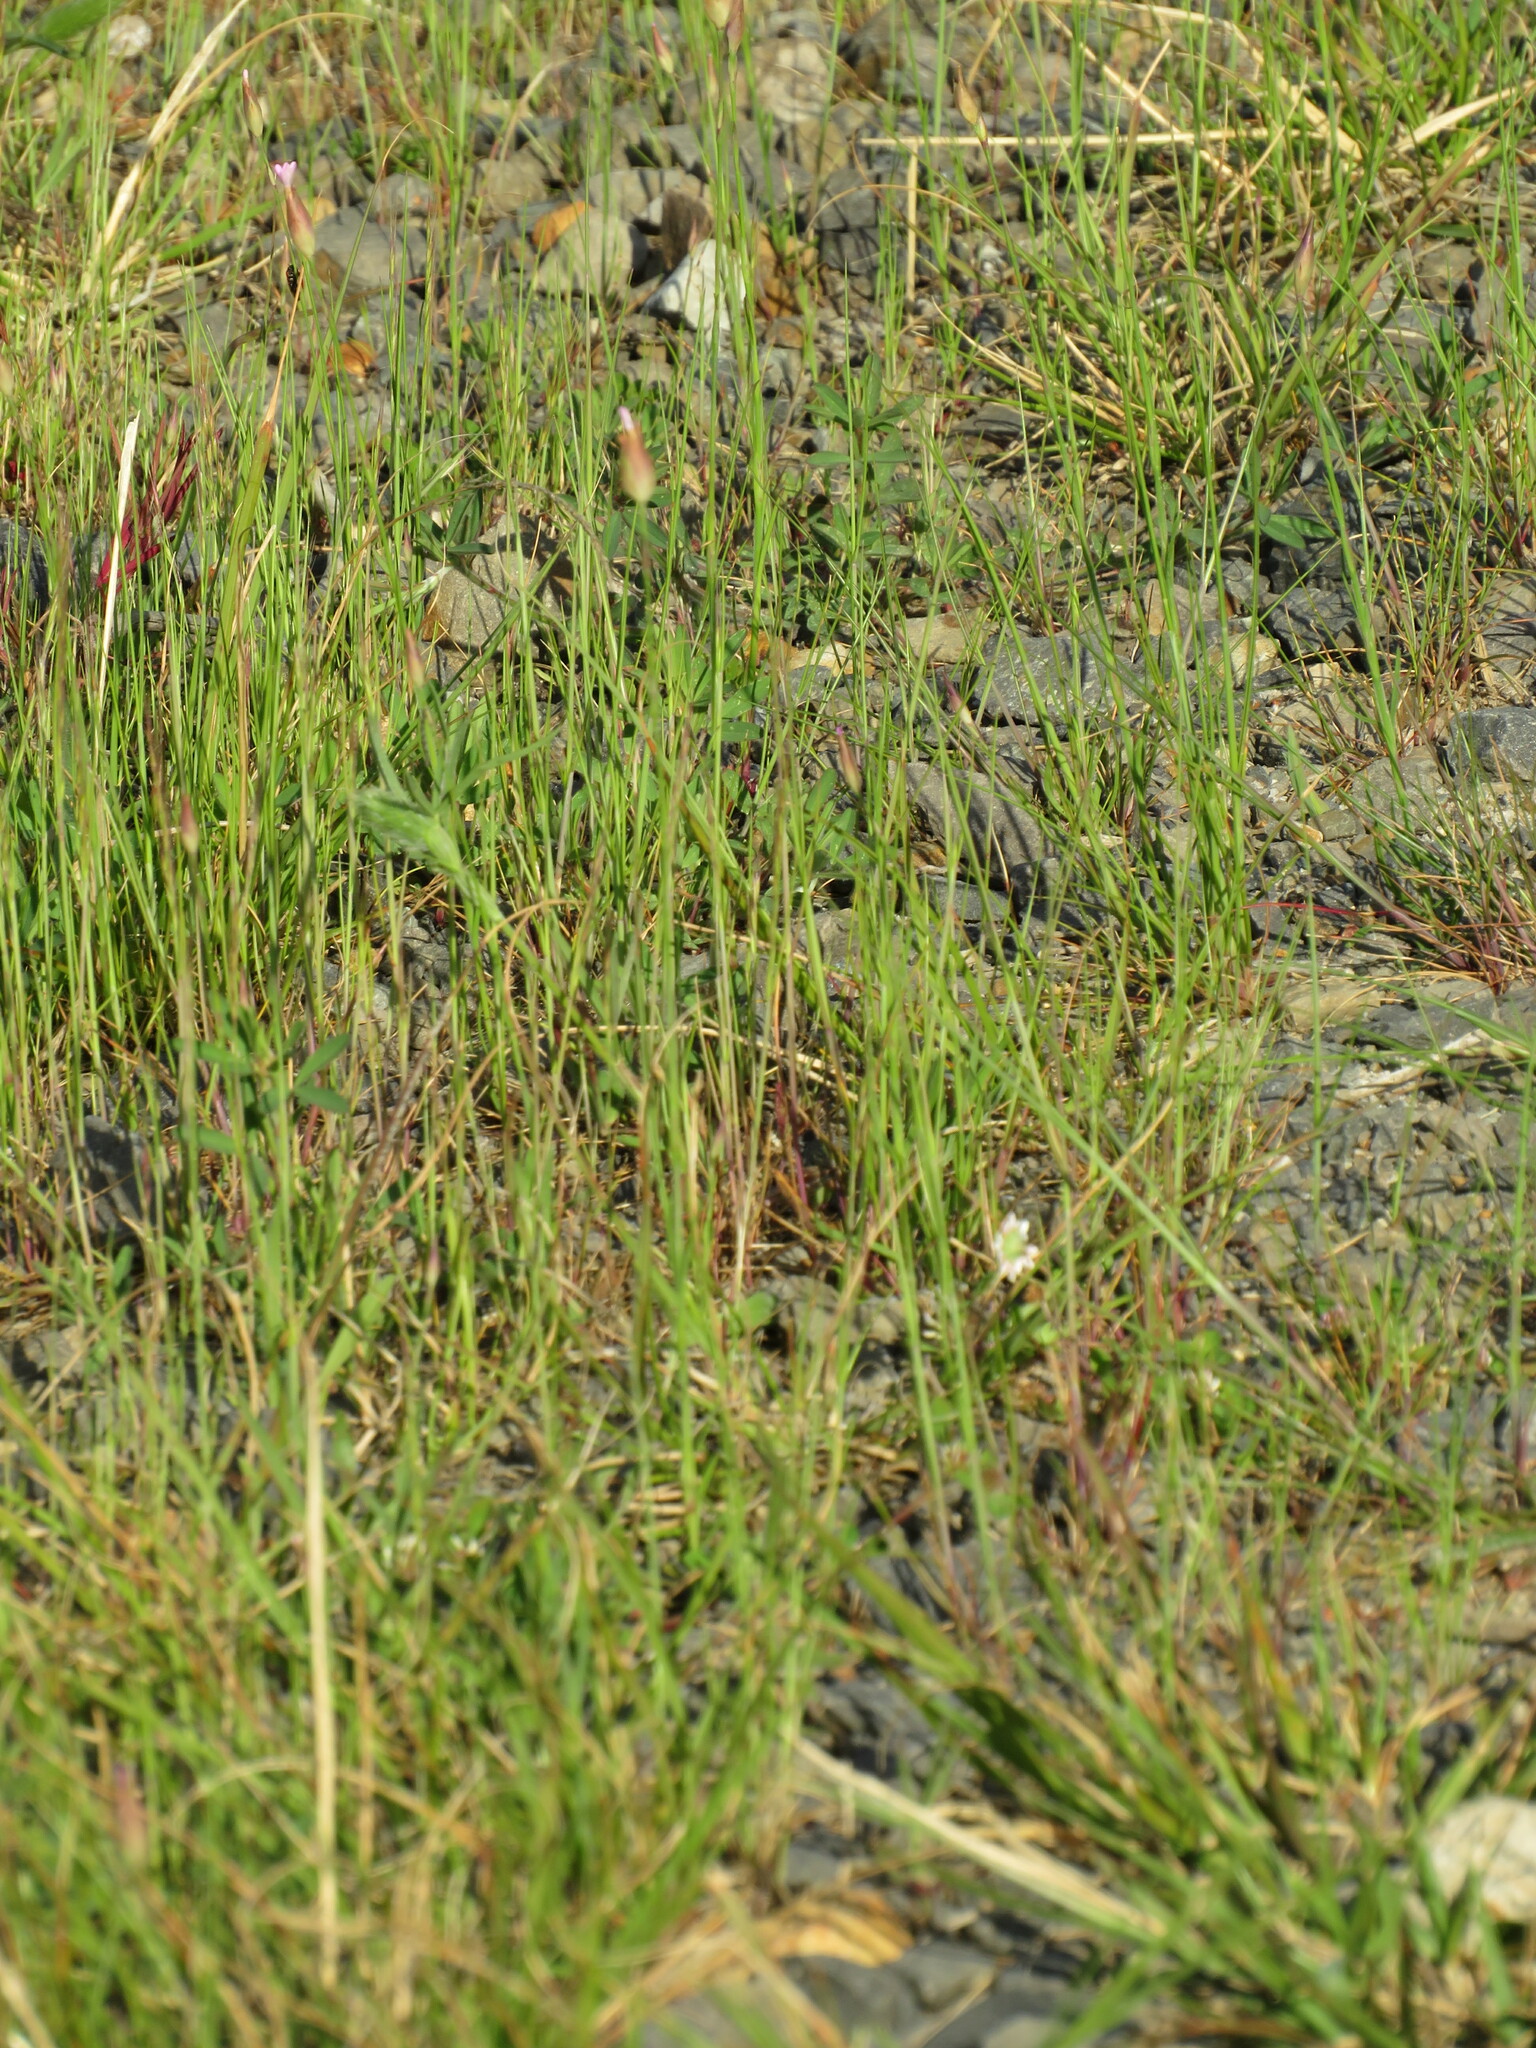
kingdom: Plantae
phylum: Tracheophyta
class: Magnoliopsida
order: Caryophyllales
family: Caryophyllaceae
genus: Petrorhagia
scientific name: Petrorhagia prolifera
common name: Proliferous pink
